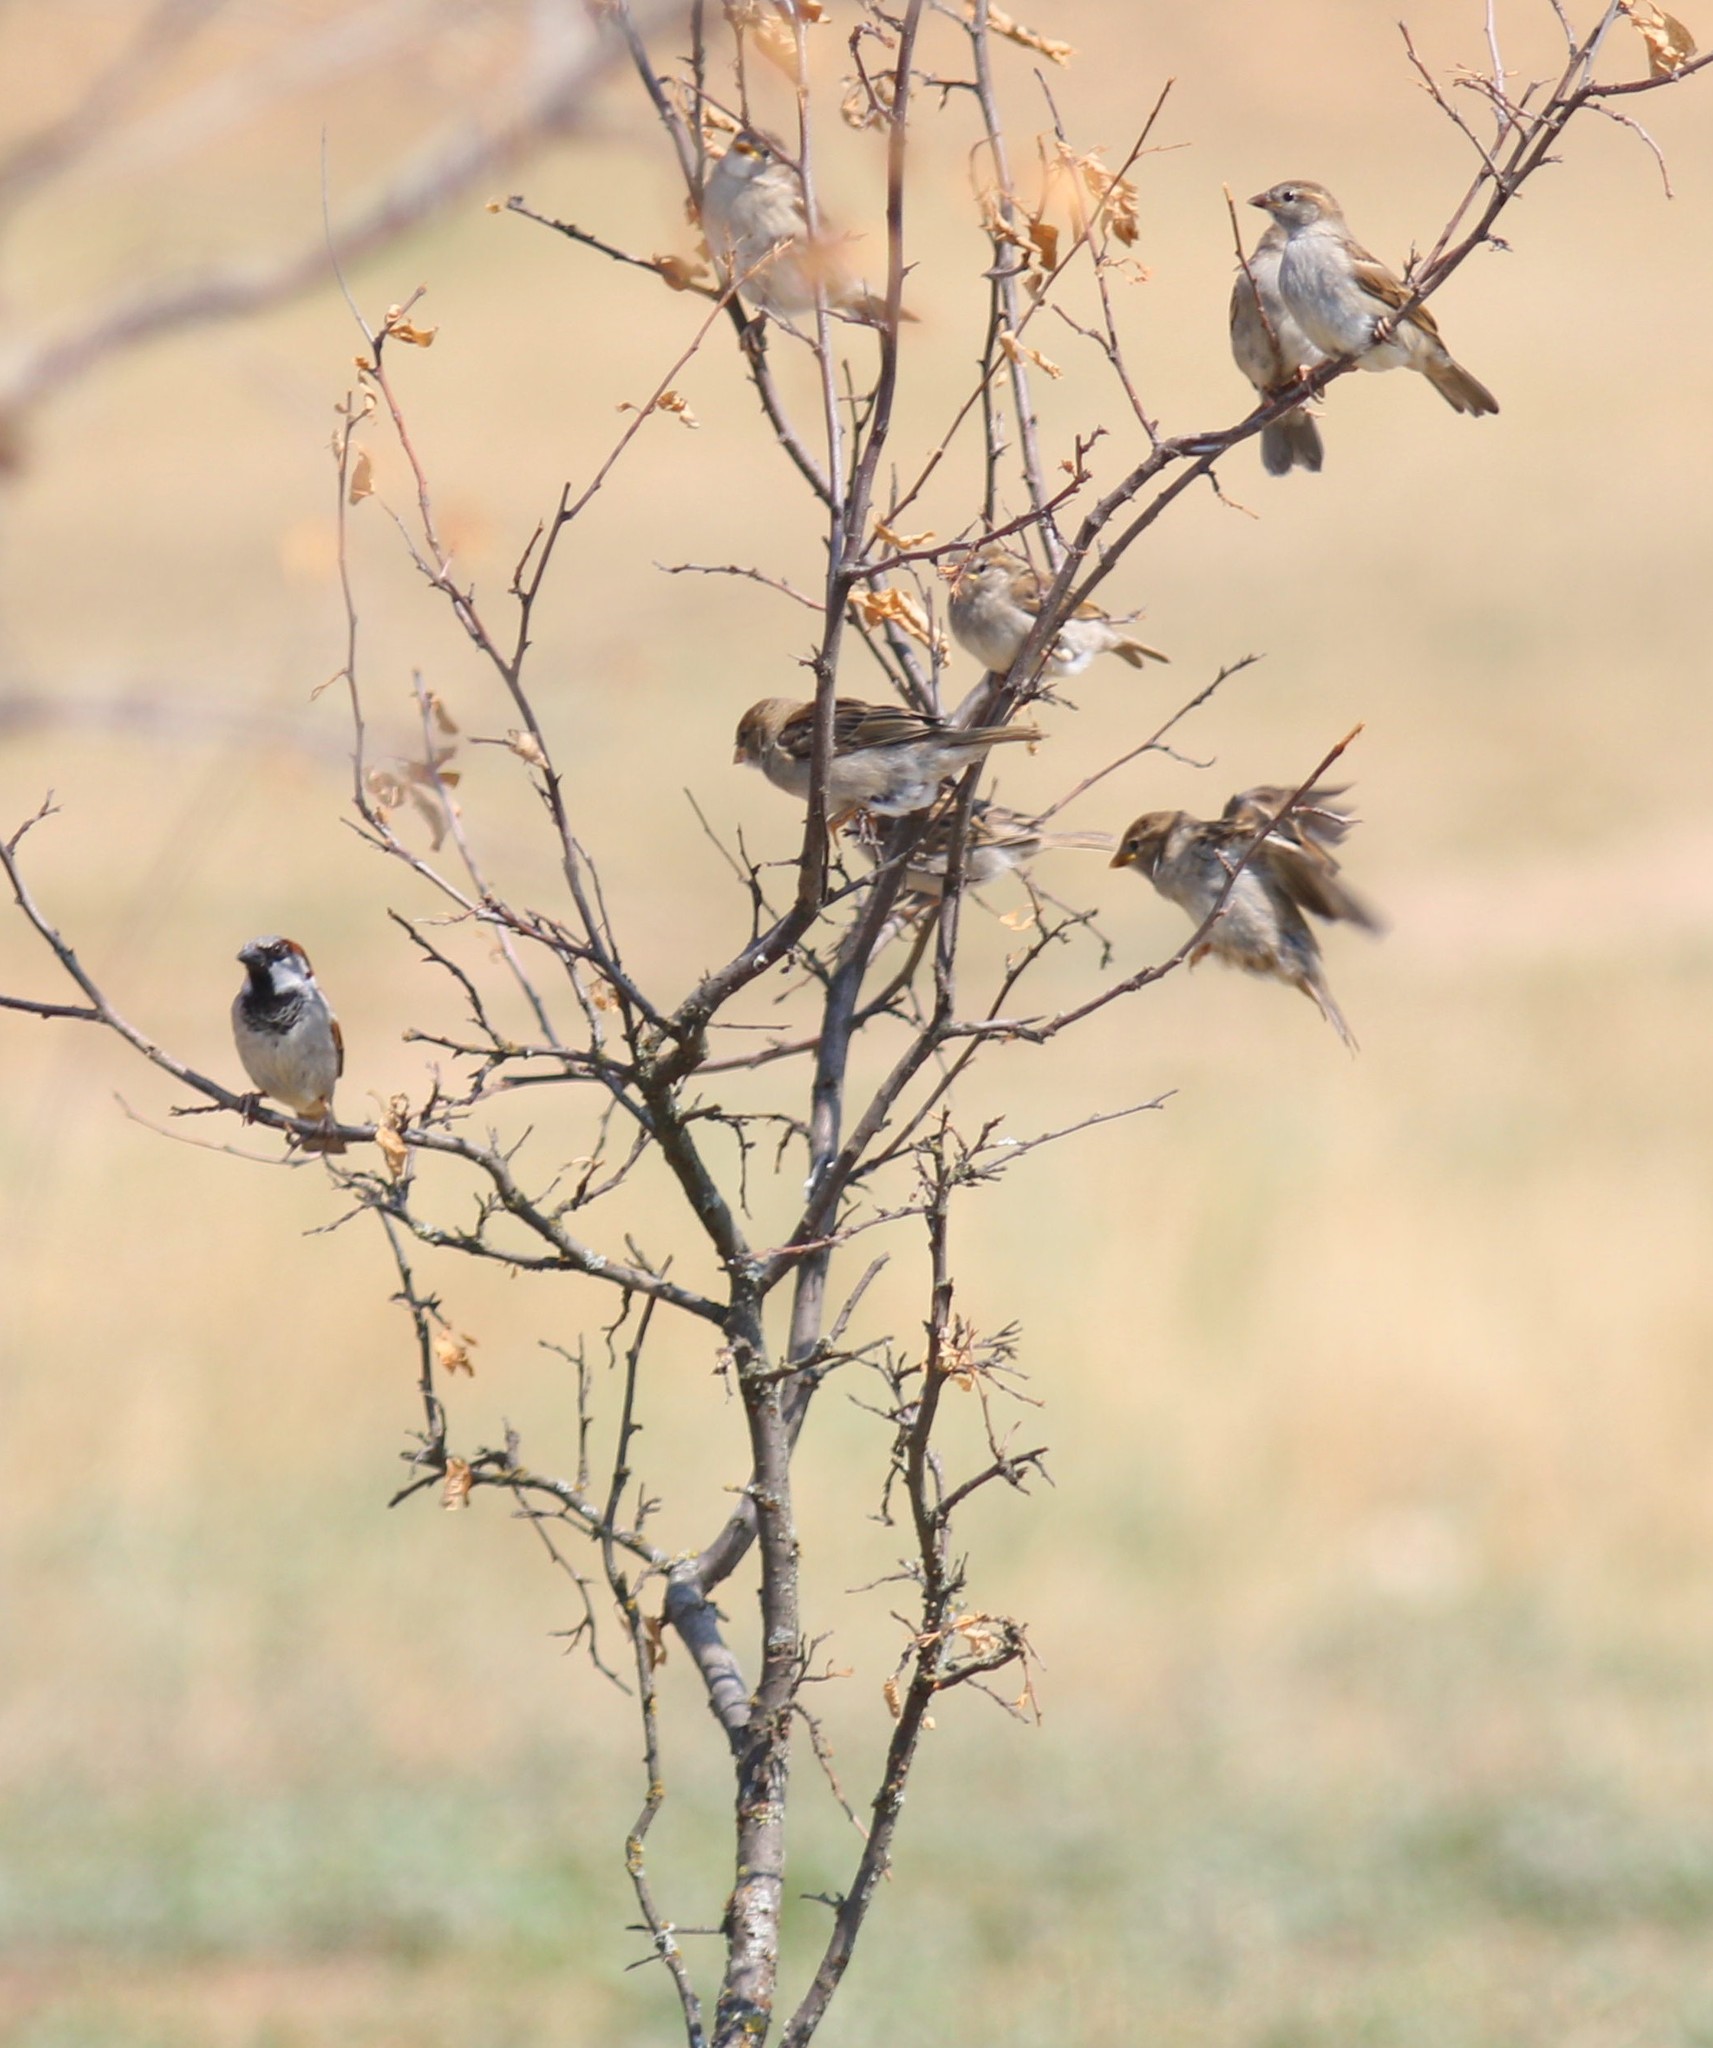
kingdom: Animalia
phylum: Chordata
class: Aves
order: Passeriformes
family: Passeridae
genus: Passer
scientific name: Passer domesticus
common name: House sparrow
